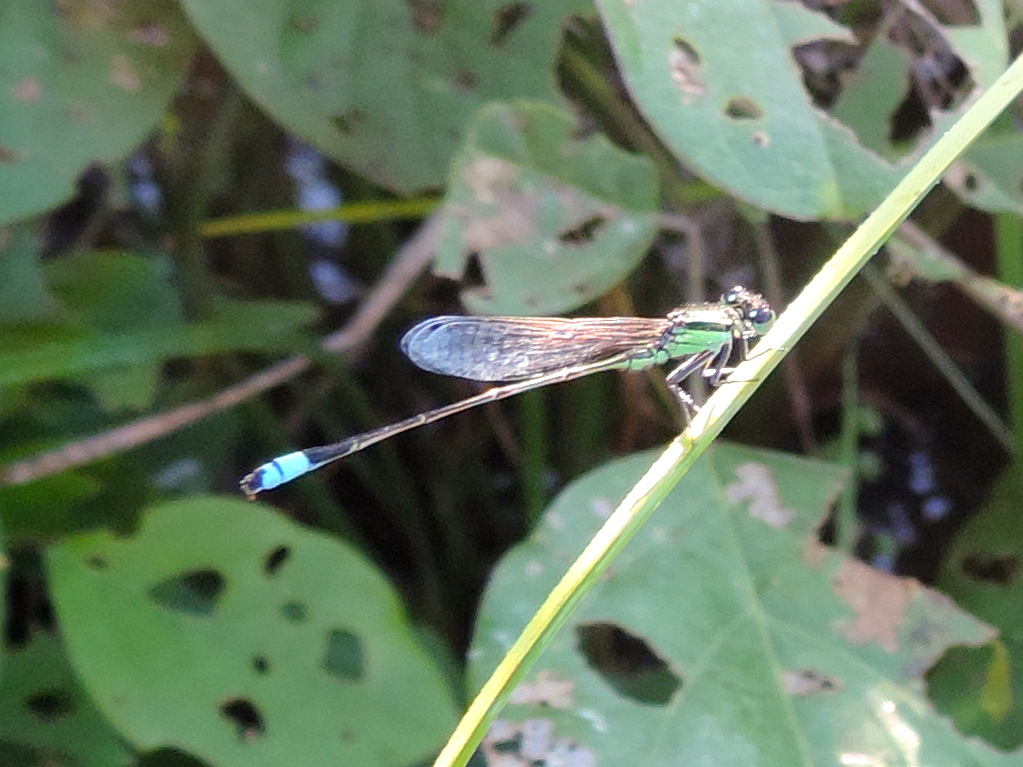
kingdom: Animalia
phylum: Arthropoda
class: Insecta
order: Odonata
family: Coenagrionidae
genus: Ischnura
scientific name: Ischnura ramburii
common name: Rambur's forktail
